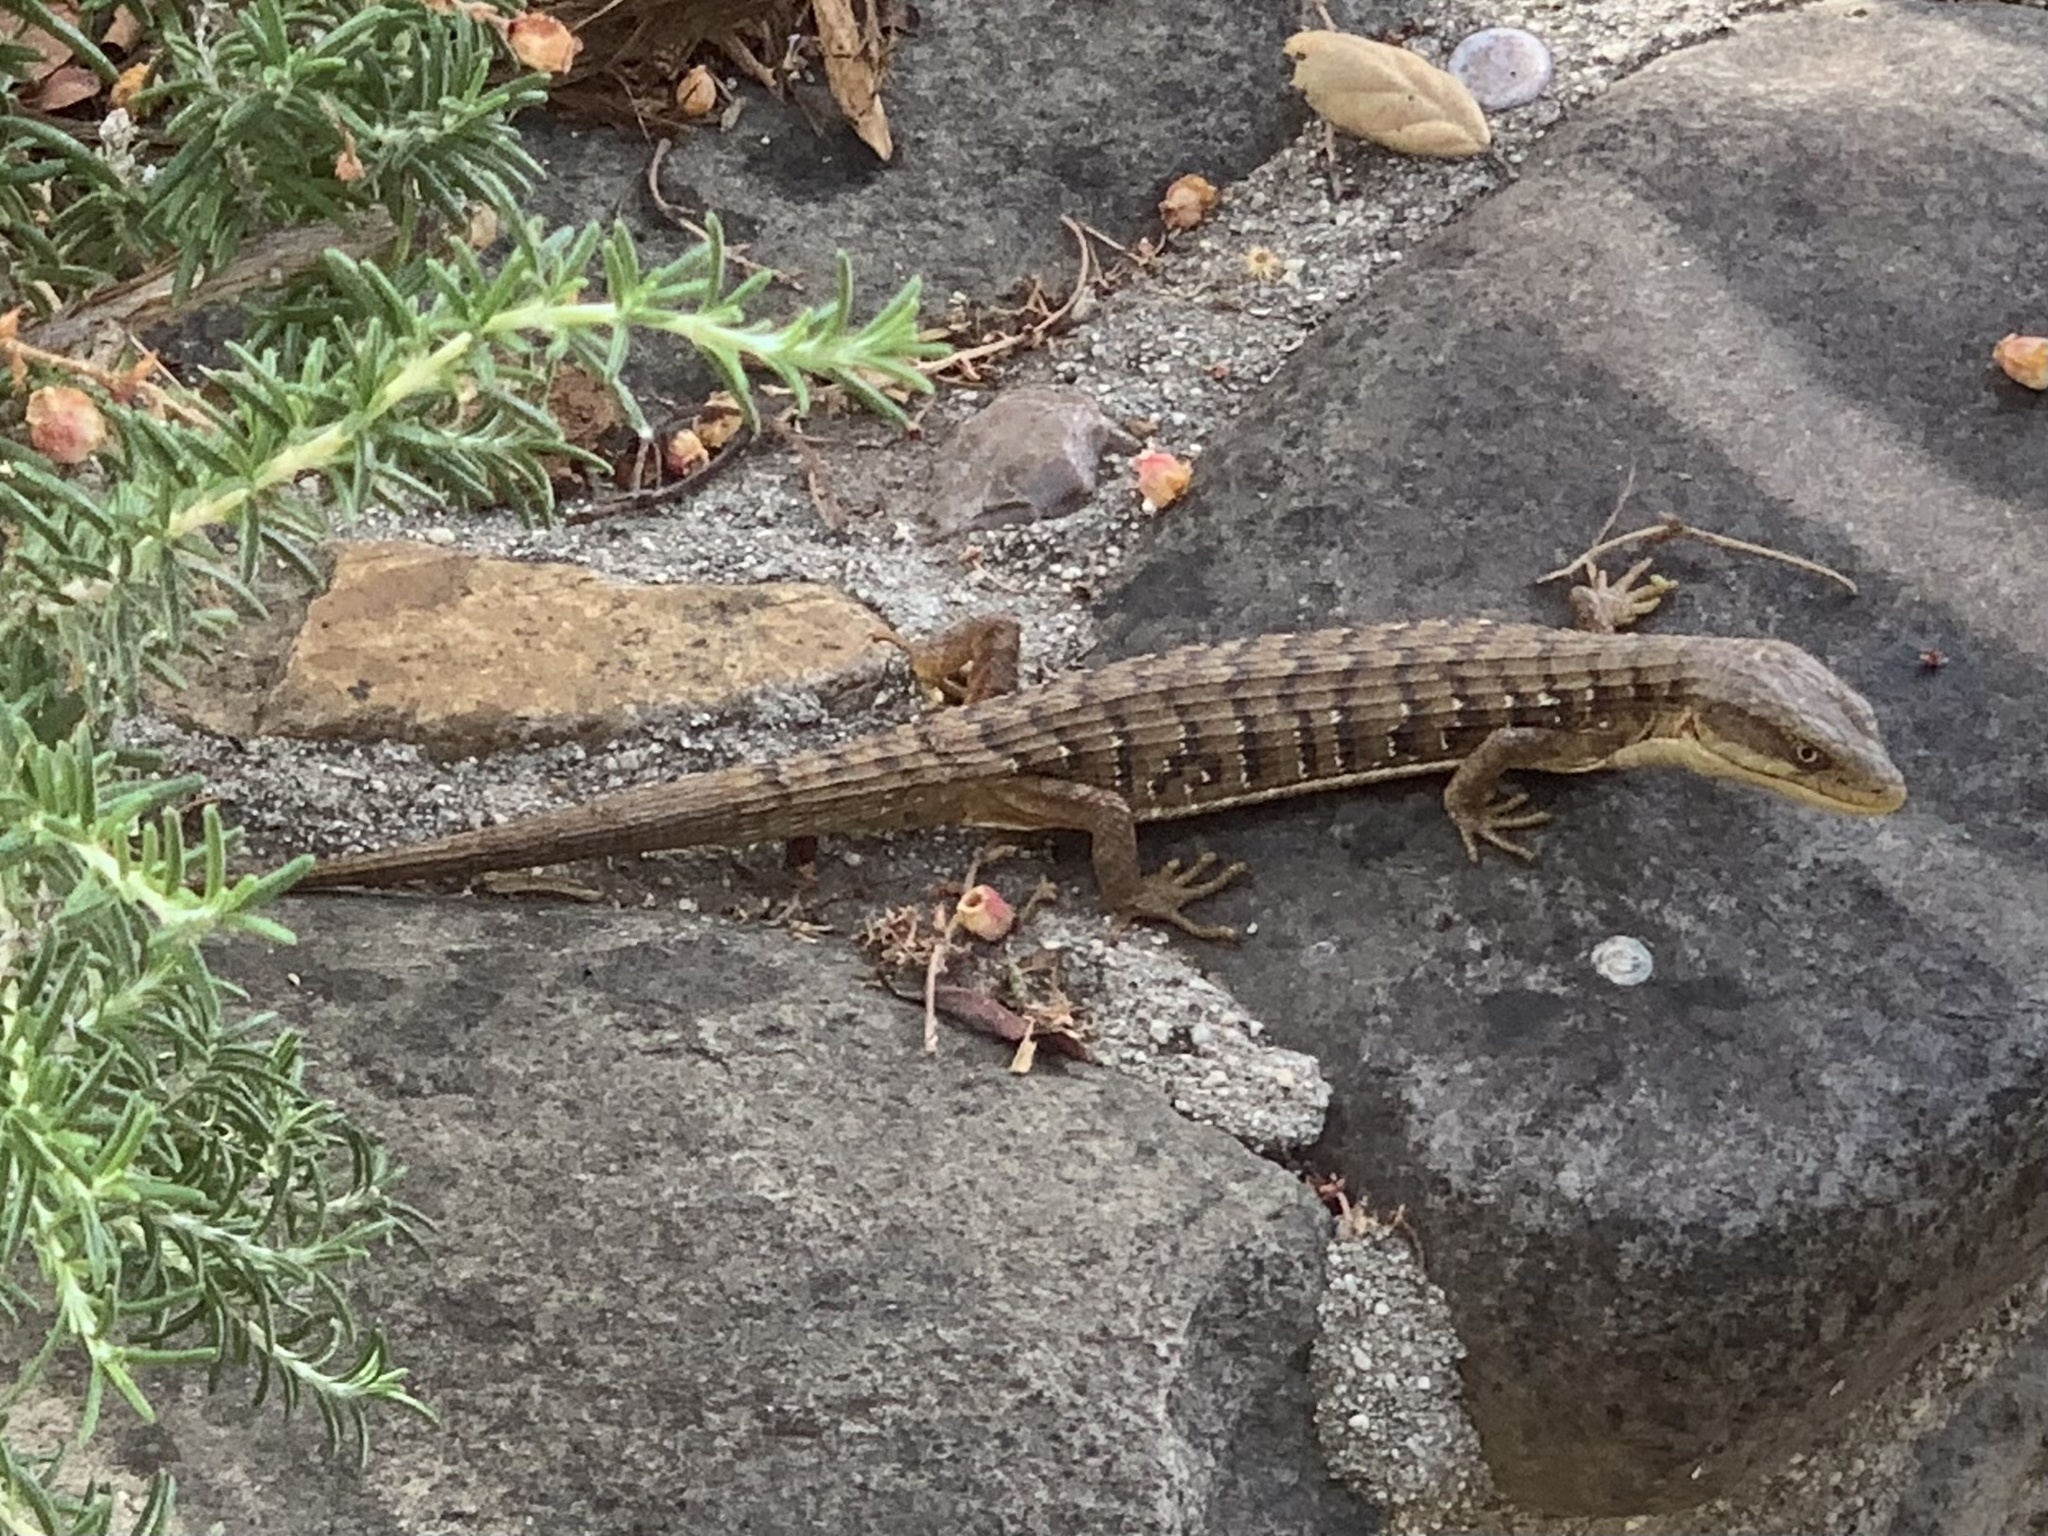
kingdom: Animalia
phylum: Chordata
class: Squamata
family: Anguidae
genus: Elgaria
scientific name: Elgaria multicarinata
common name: Southern alligator lizard
